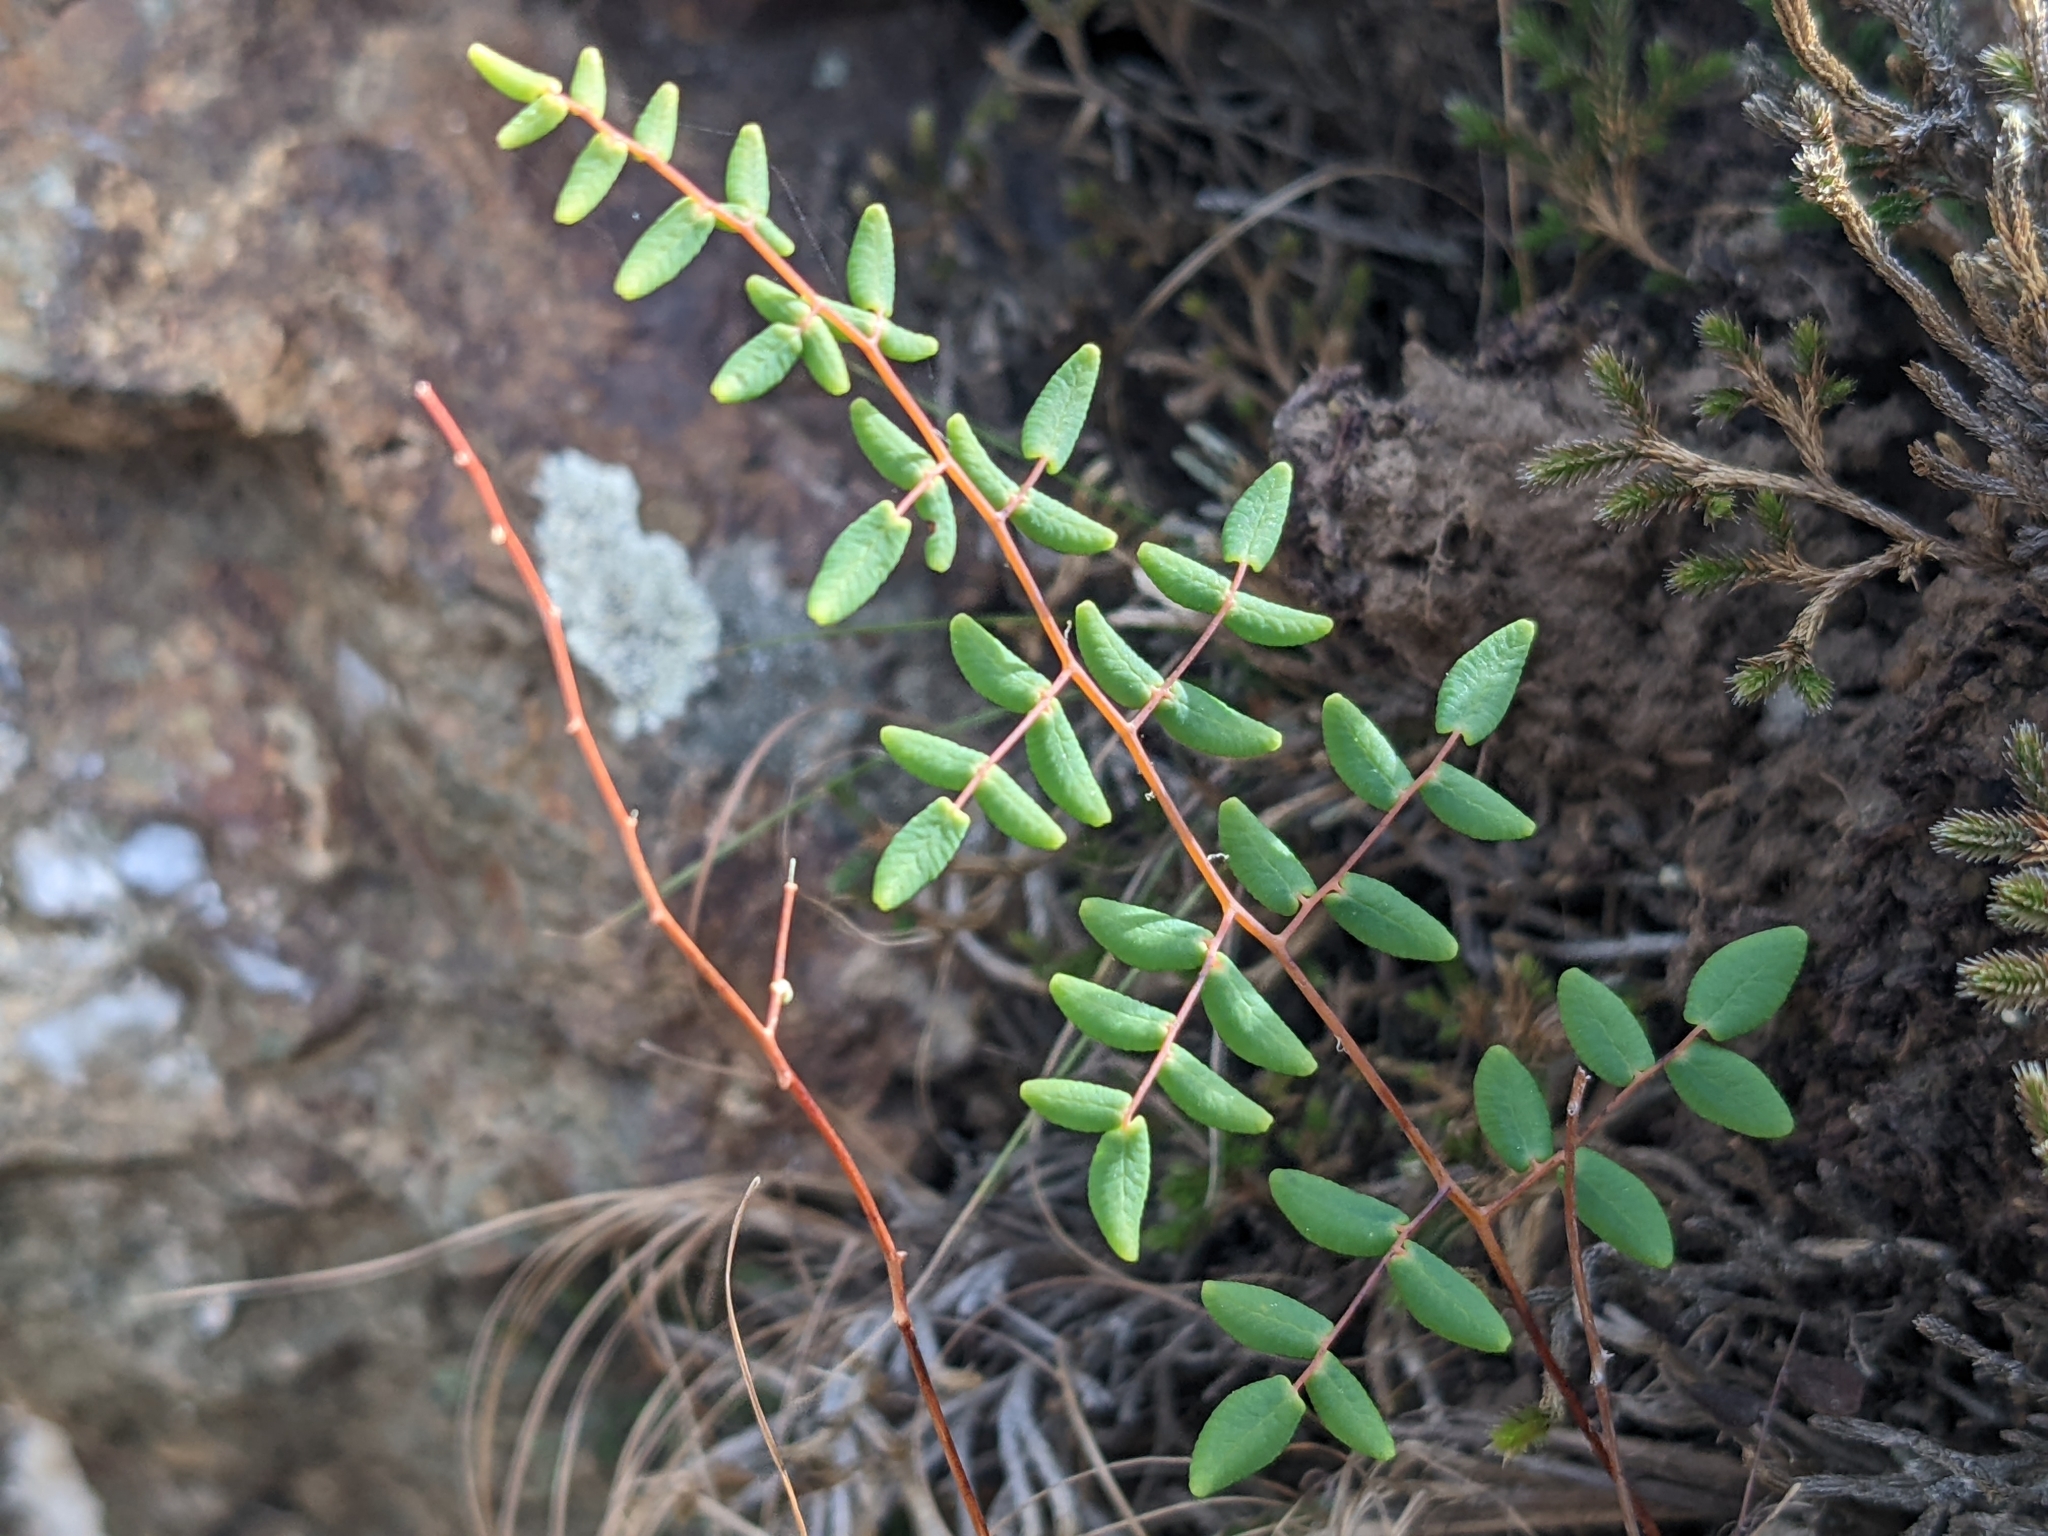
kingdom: Plantae
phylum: Tracheophyta
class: Polypodiopsida
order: Polypodiales
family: Pteridaceae
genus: Pellaea
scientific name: Pellaea andromedifolia
